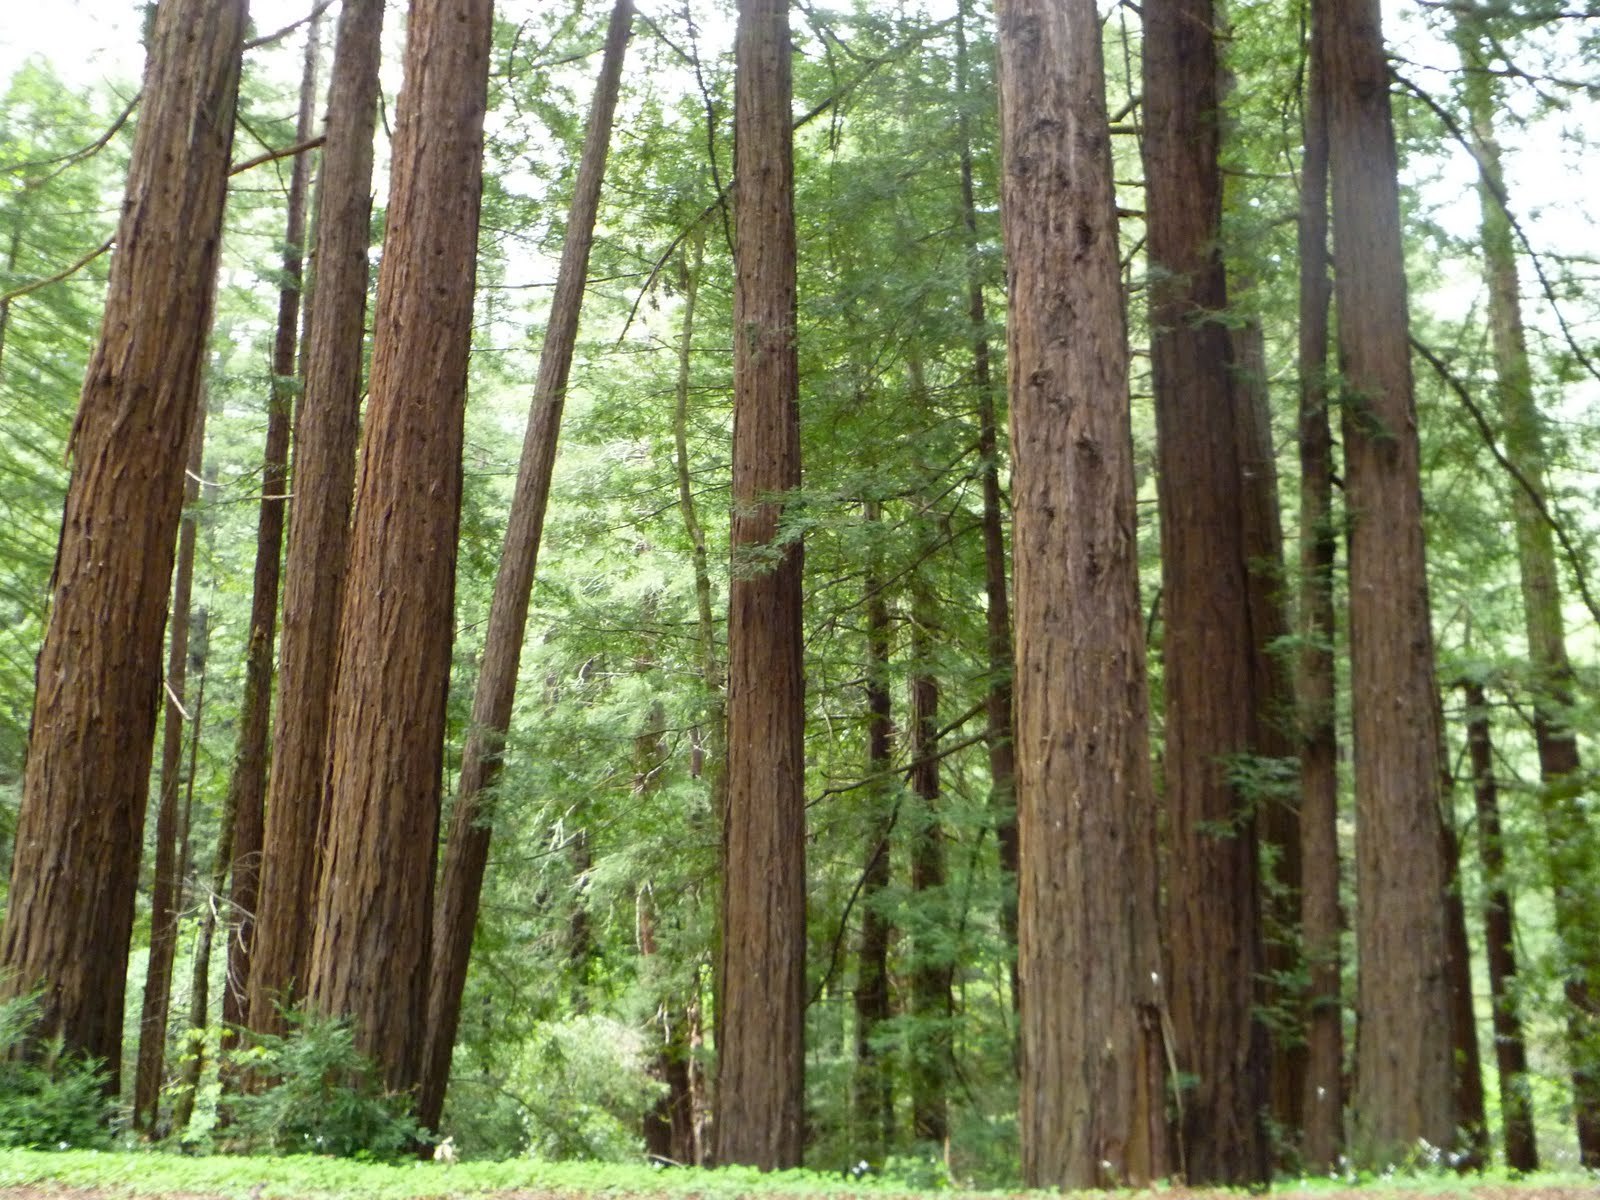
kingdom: Plantae
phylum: Tracheophyta
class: Pinopsida
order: Pinales
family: Cupressaceae
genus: Sequoia
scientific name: Sequoia sempervirens
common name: Coast redwood
